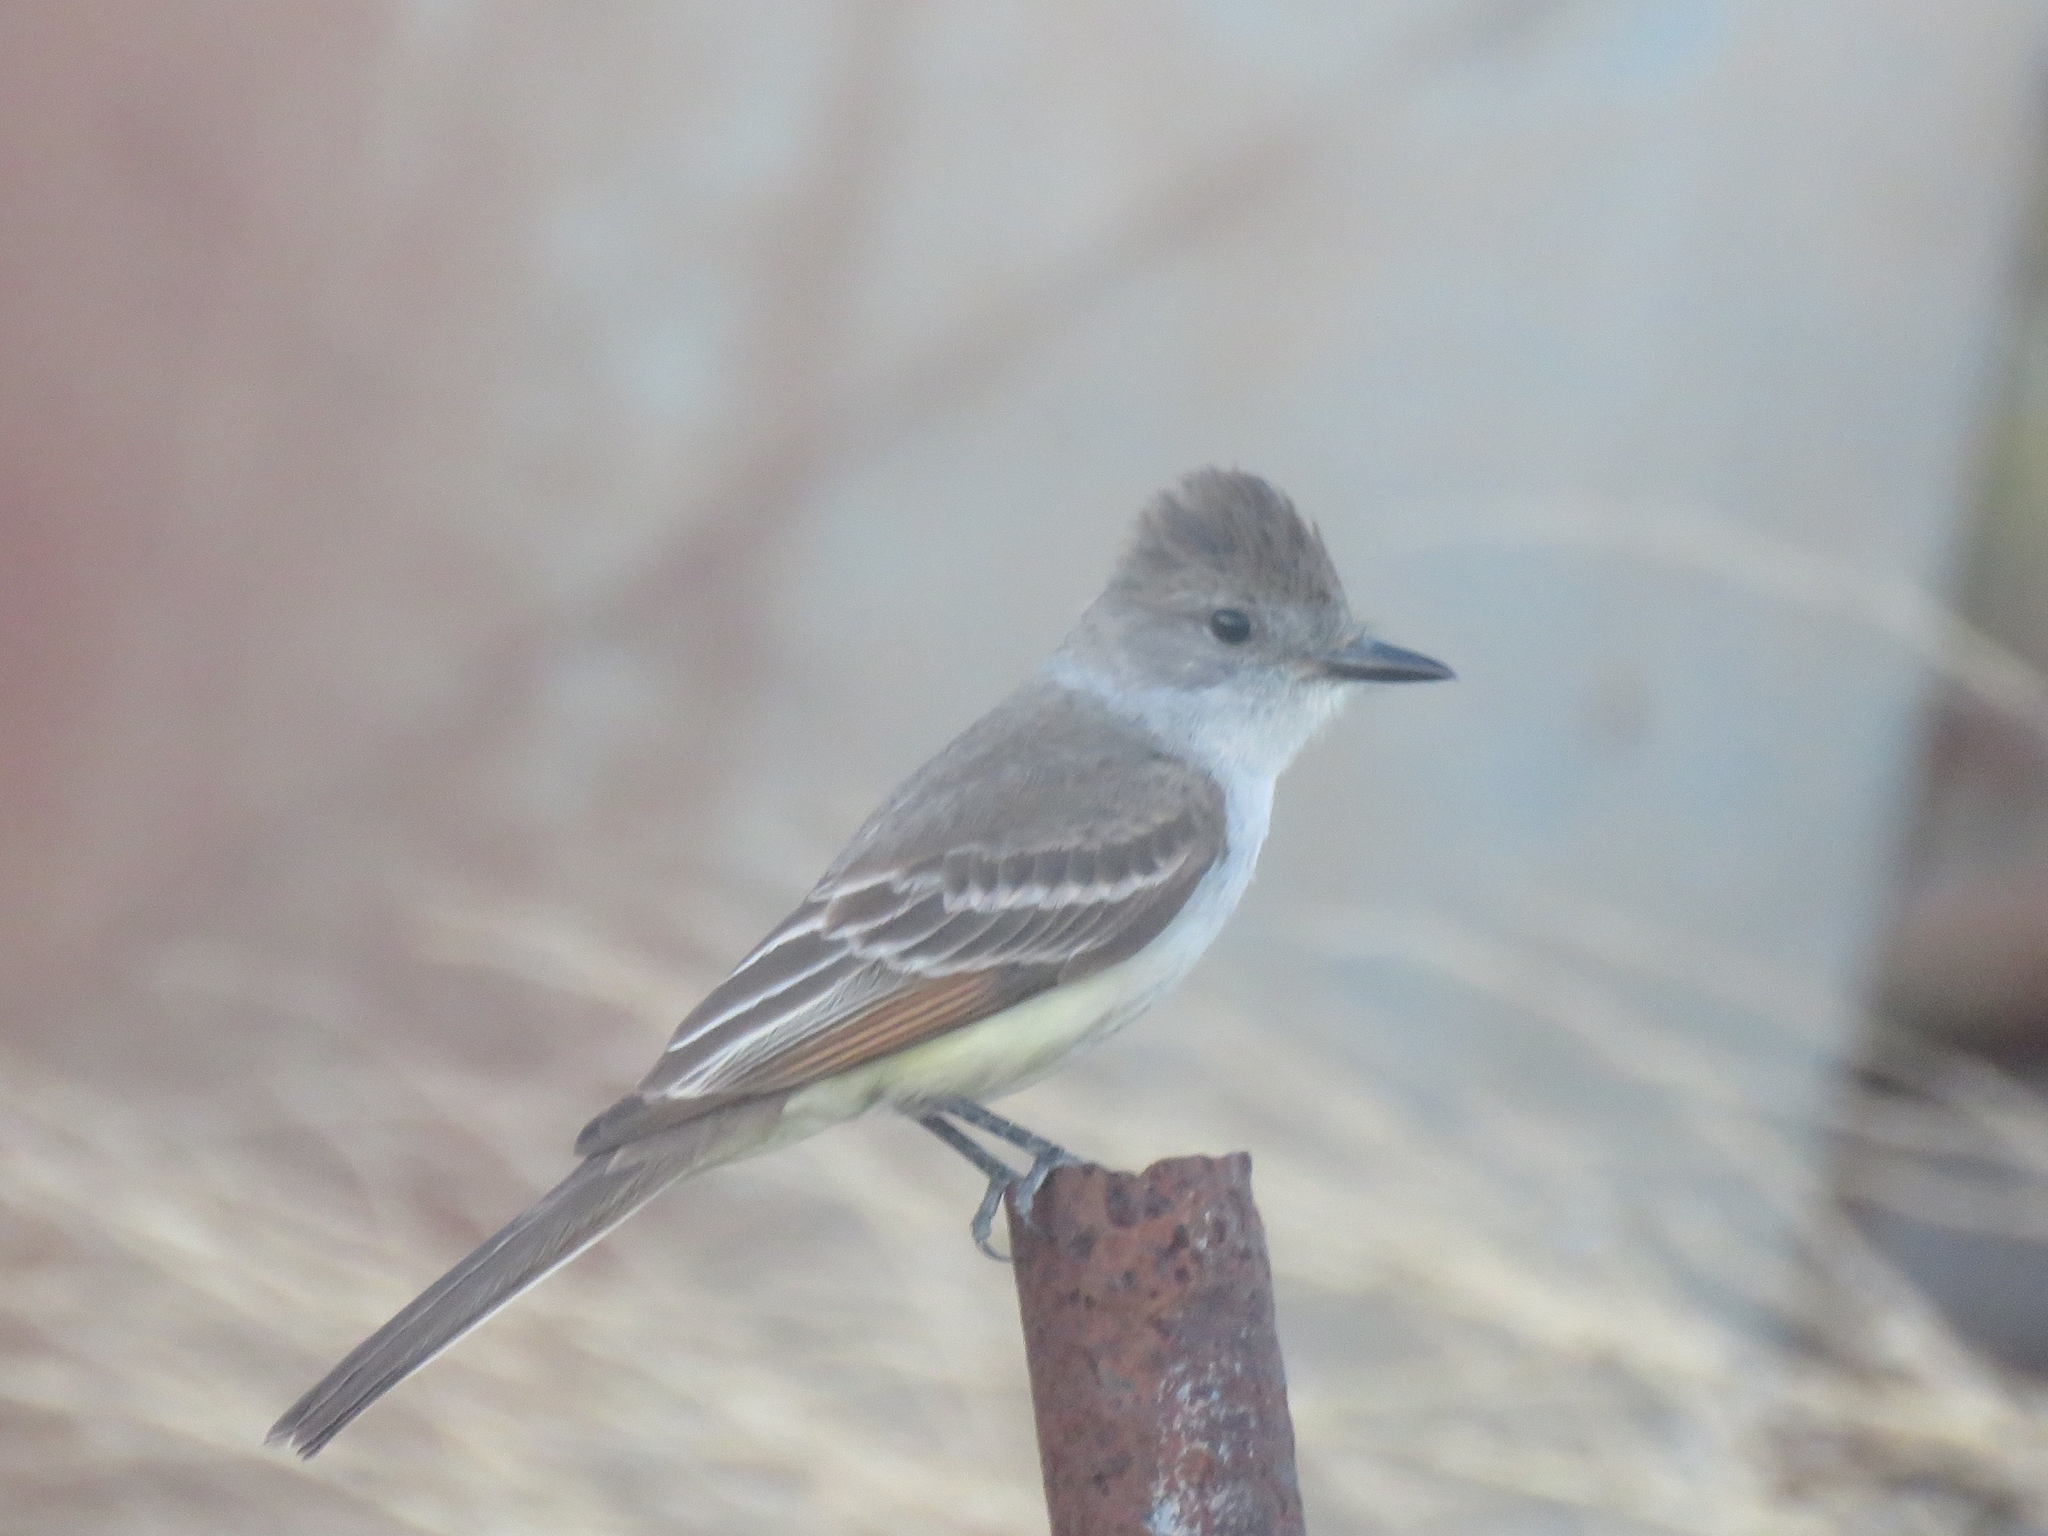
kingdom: Animalia
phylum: Chordata
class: Aves
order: Passeriformes
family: Tyrannidae
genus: Myiarchus
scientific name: Myiarchus cinerascens
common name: Ash-throated flycatcher
